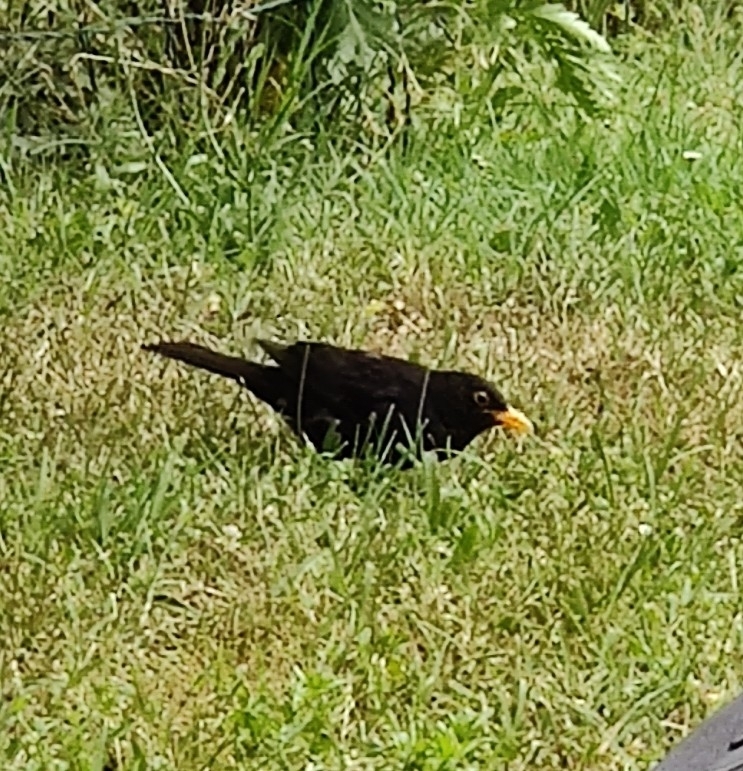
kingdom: Animalia
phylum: Chordata
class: Aves
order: Passeriformes
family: Turdidae
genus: Turdus
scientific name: Turdus merula
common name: Common blackbird
